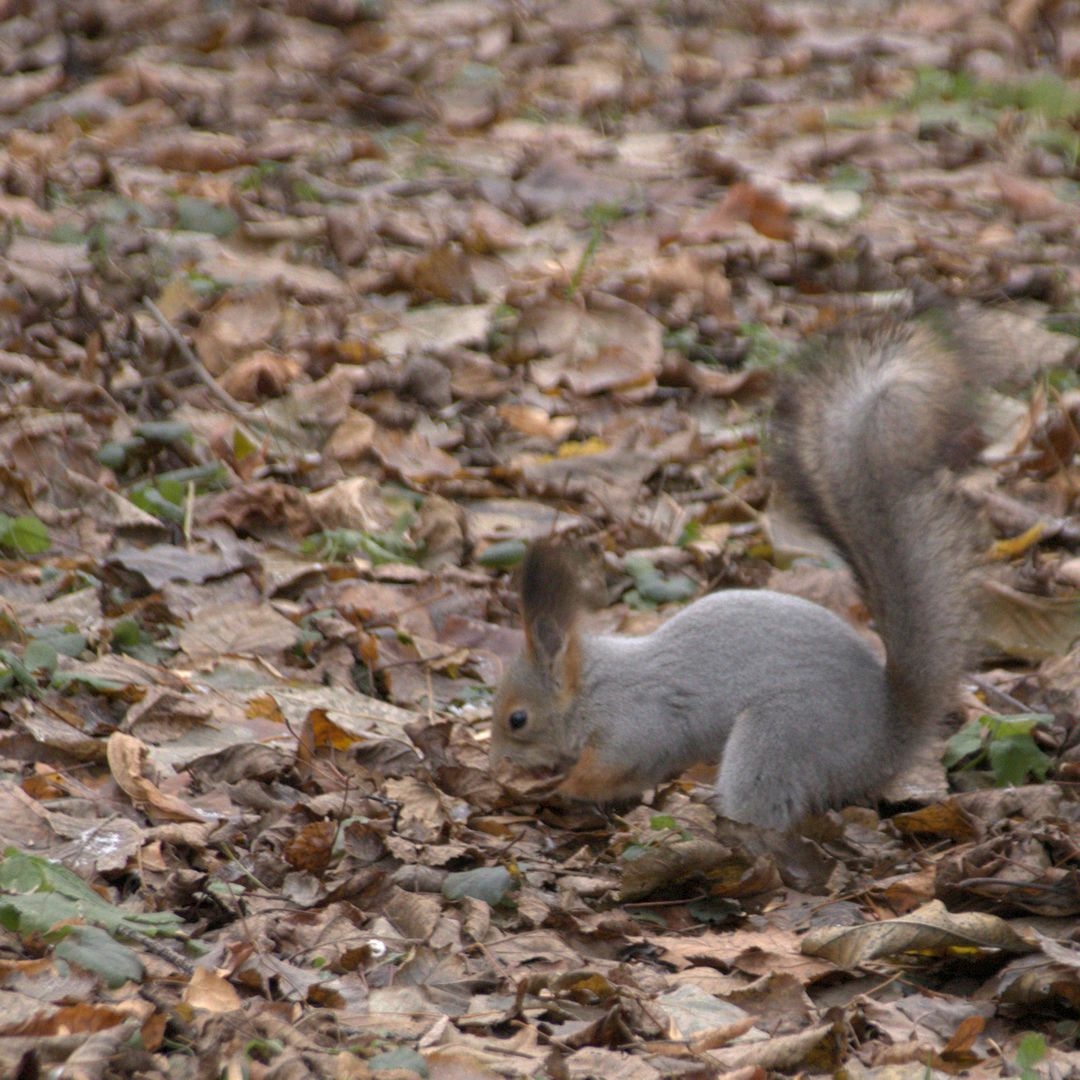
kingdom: Animalia
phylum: Chordata
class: Mammalia
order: Rodentia
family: Sciuridae
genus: Sciurus
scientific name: Sciurus vulgaris
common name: Eurasian red squirrel
